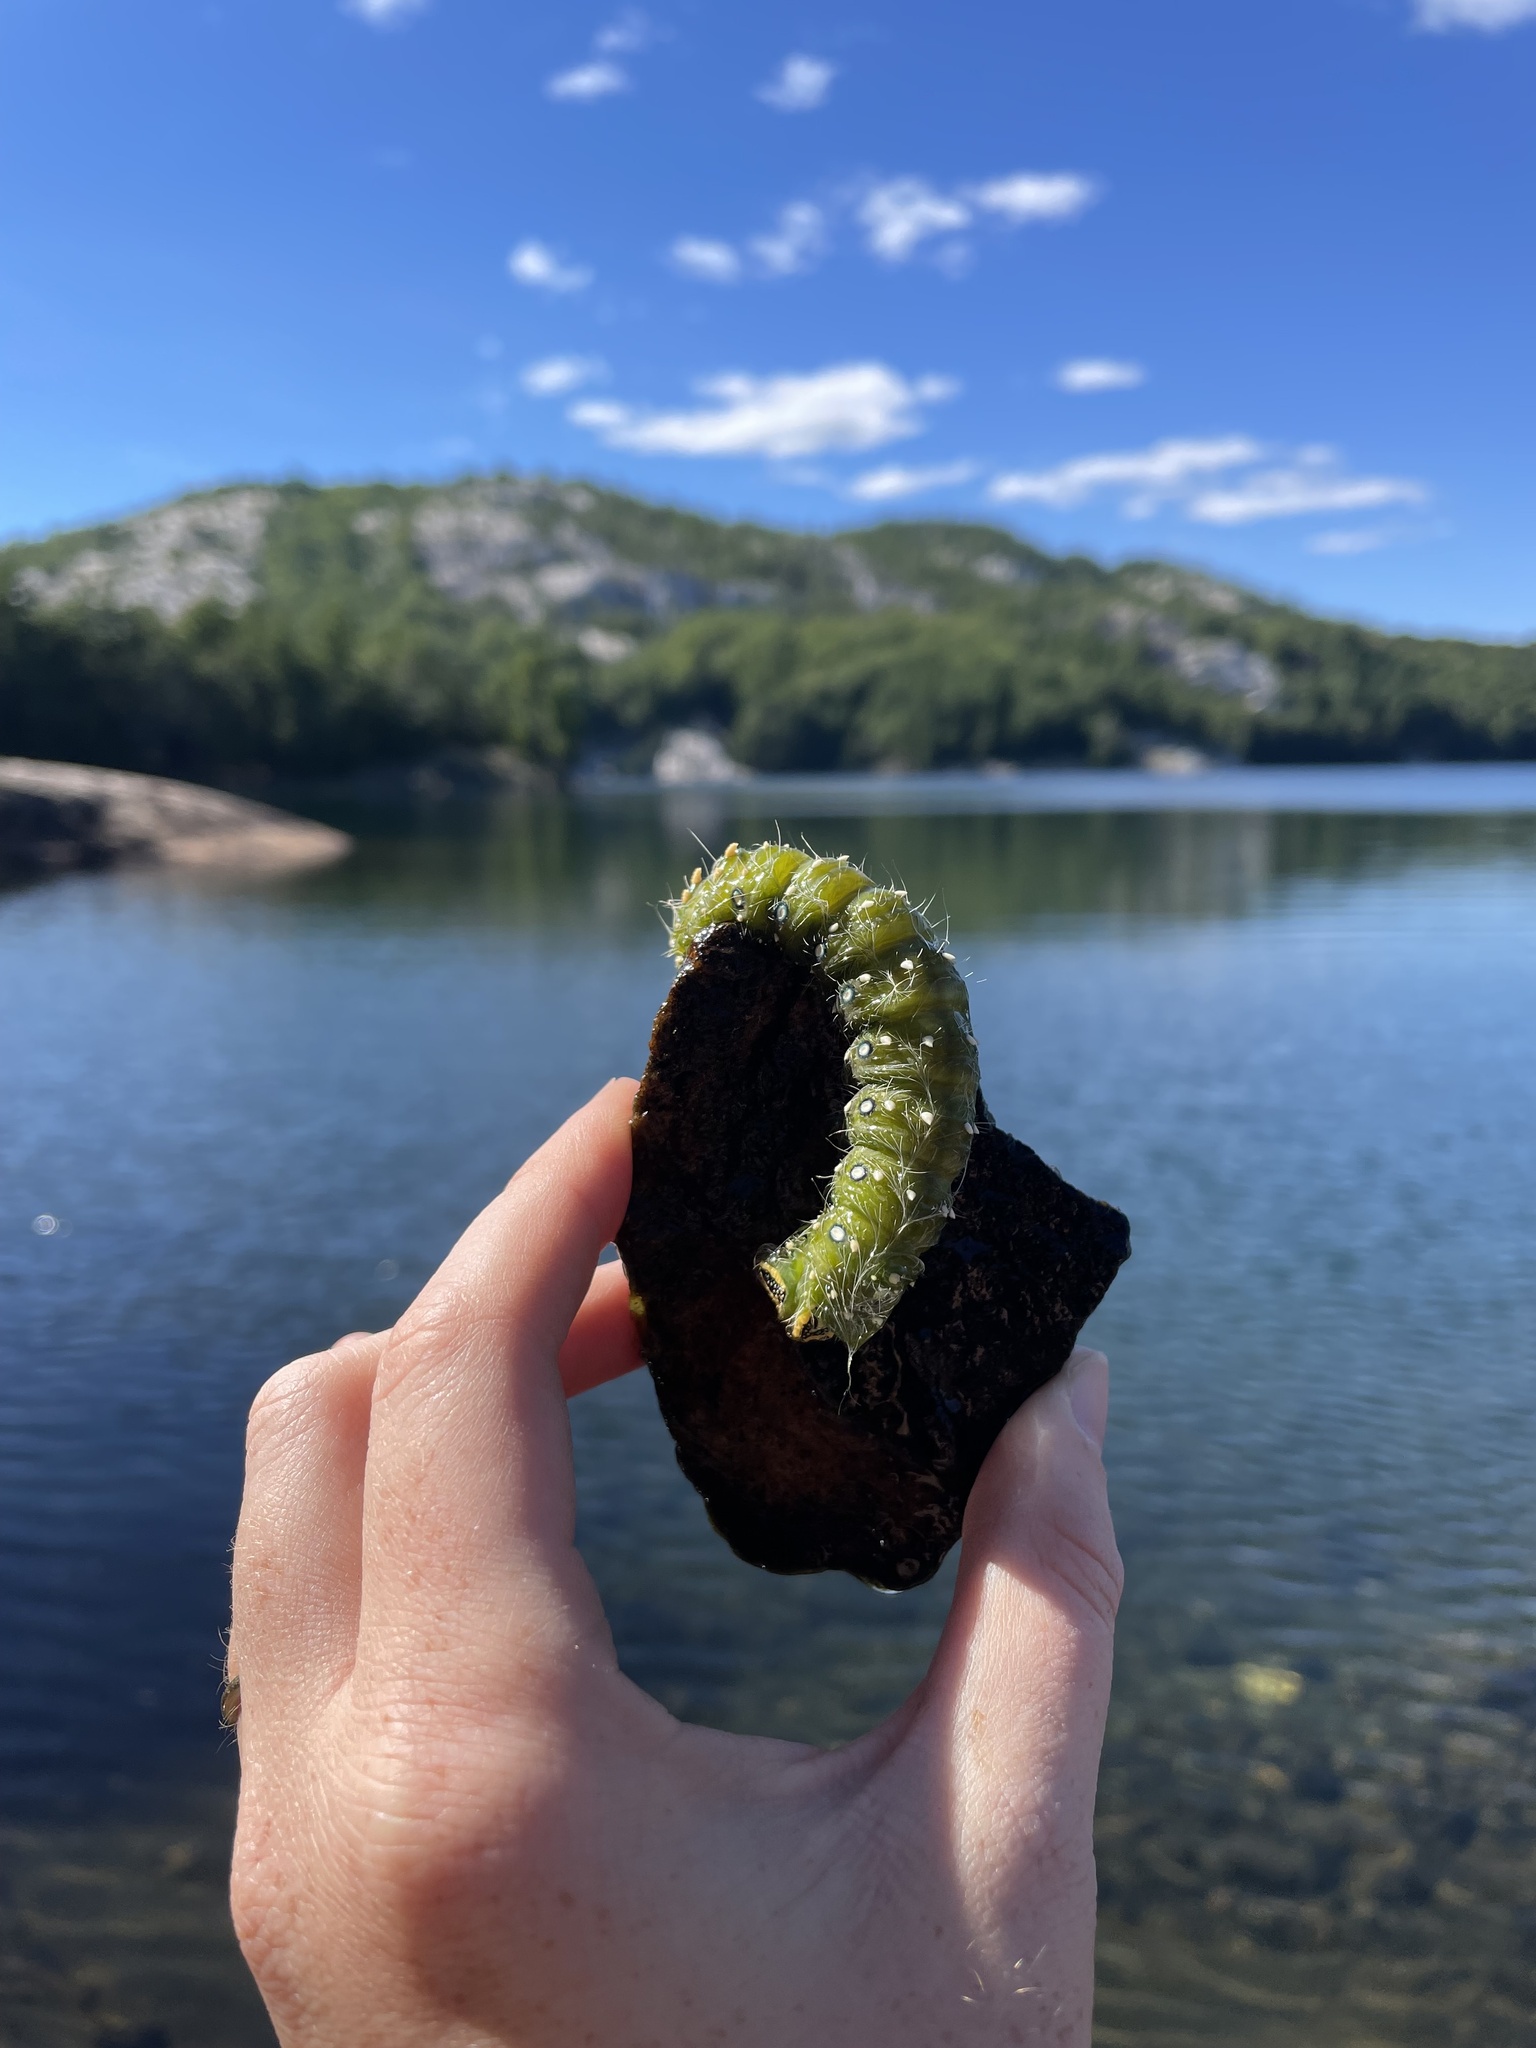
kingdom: Animalia
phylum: Arthropoda
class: Insecta
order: Lepidoptera
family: Saturniidae
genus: Eacles
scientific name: Eacles
